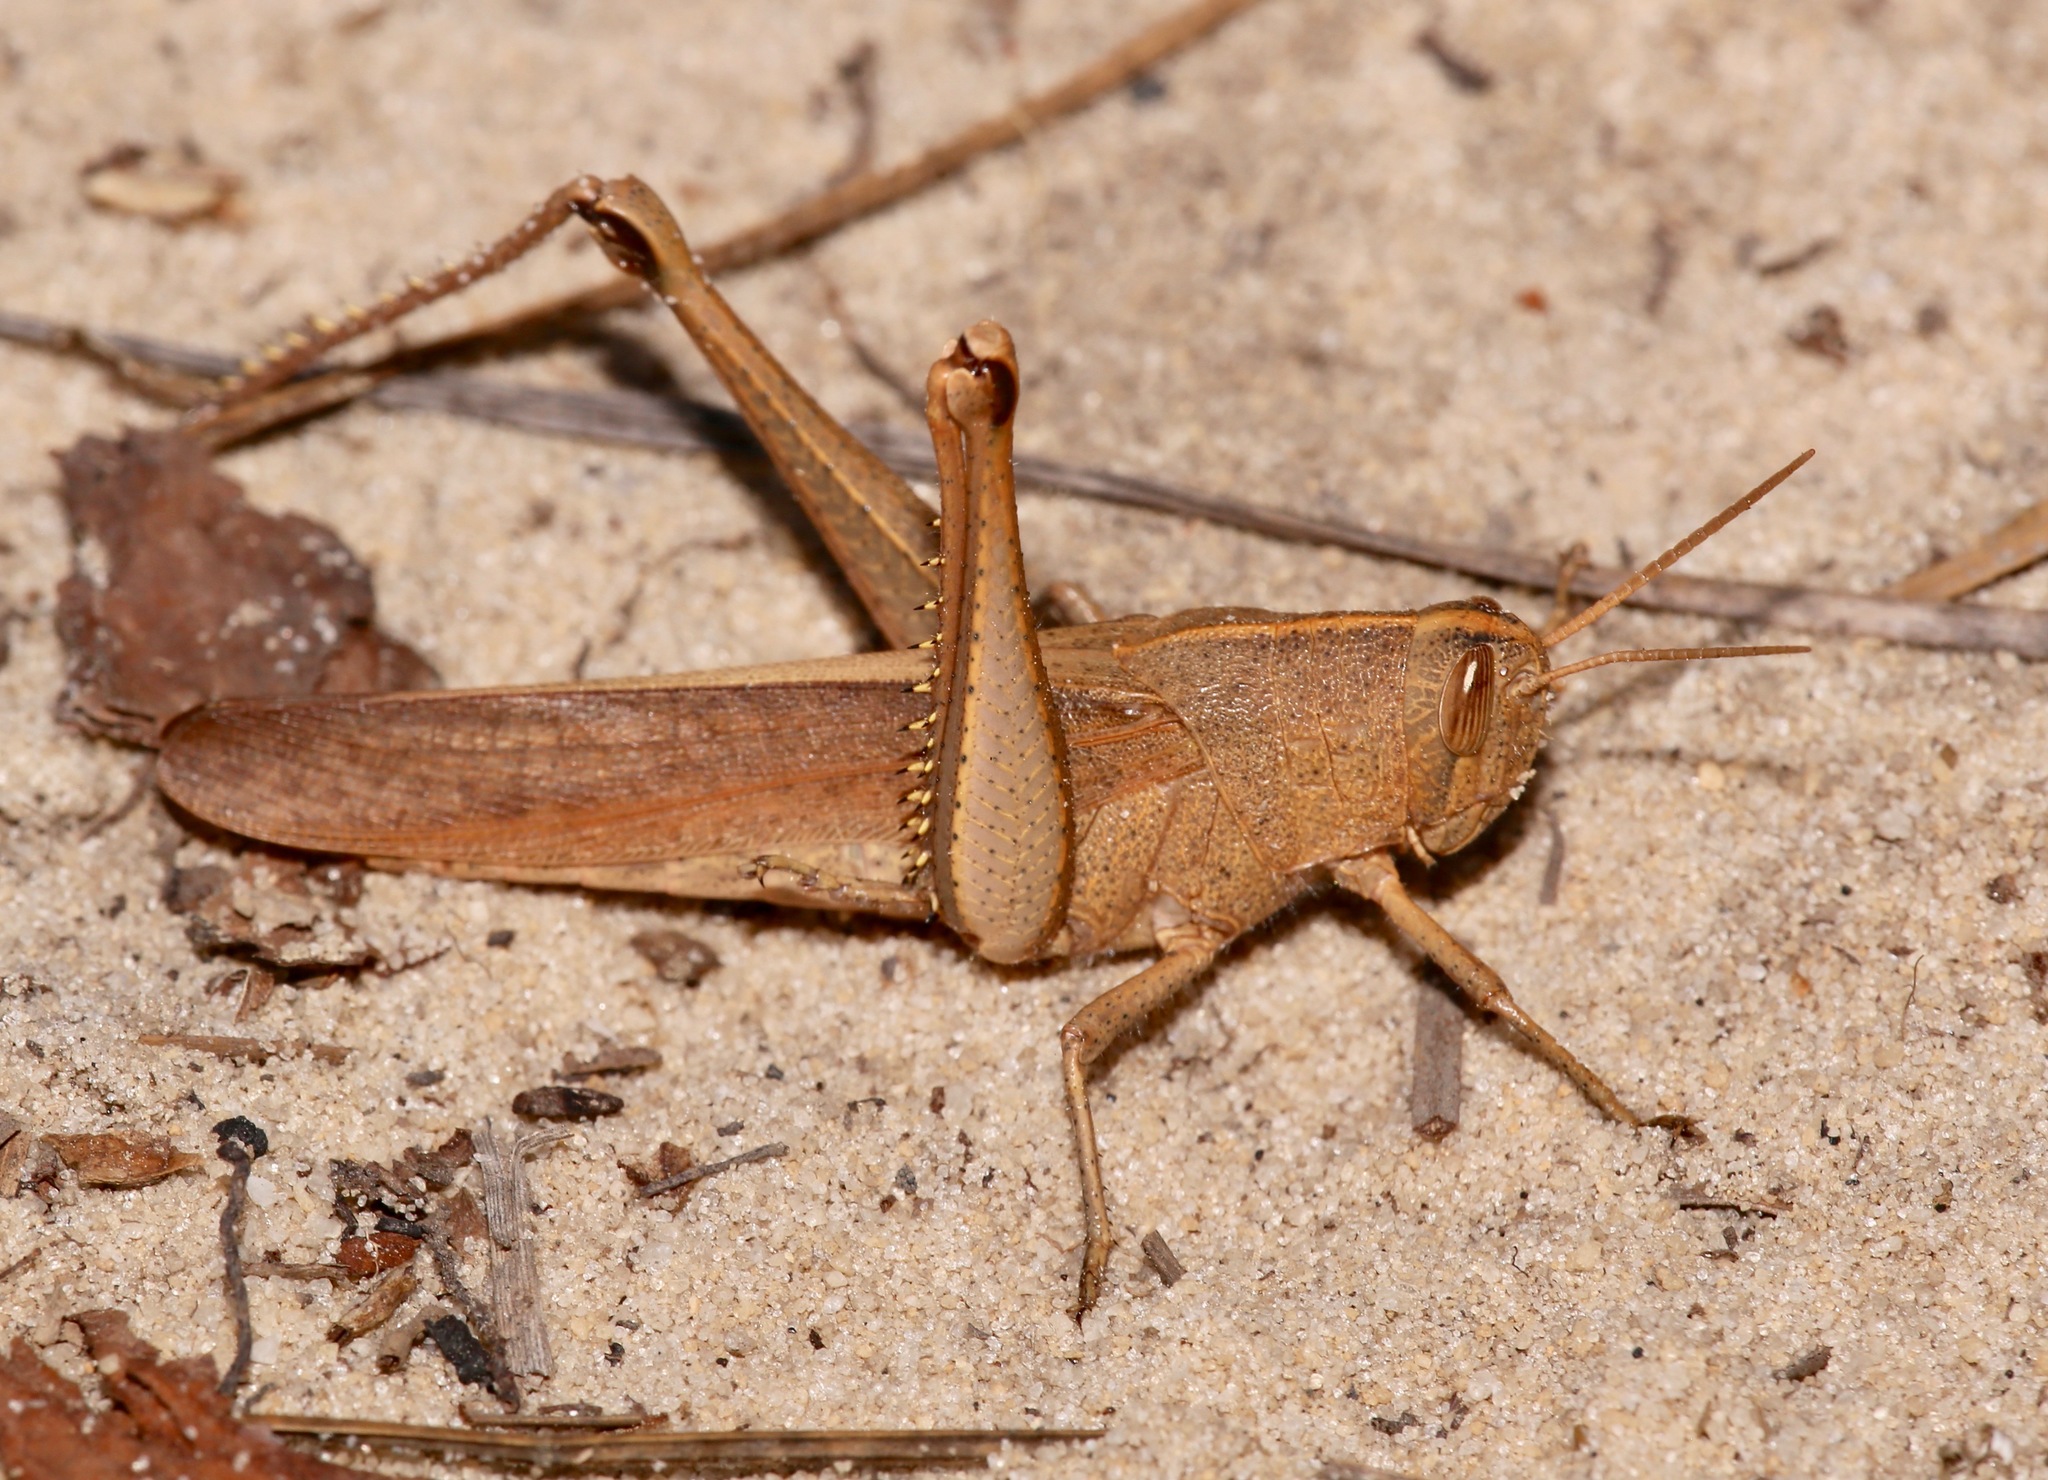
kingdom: Animalia
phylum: Arthropoda
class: Insecta
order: Orthoptera
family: Acrididae
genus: Schistocerca
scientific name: Schistocerca damnifica
